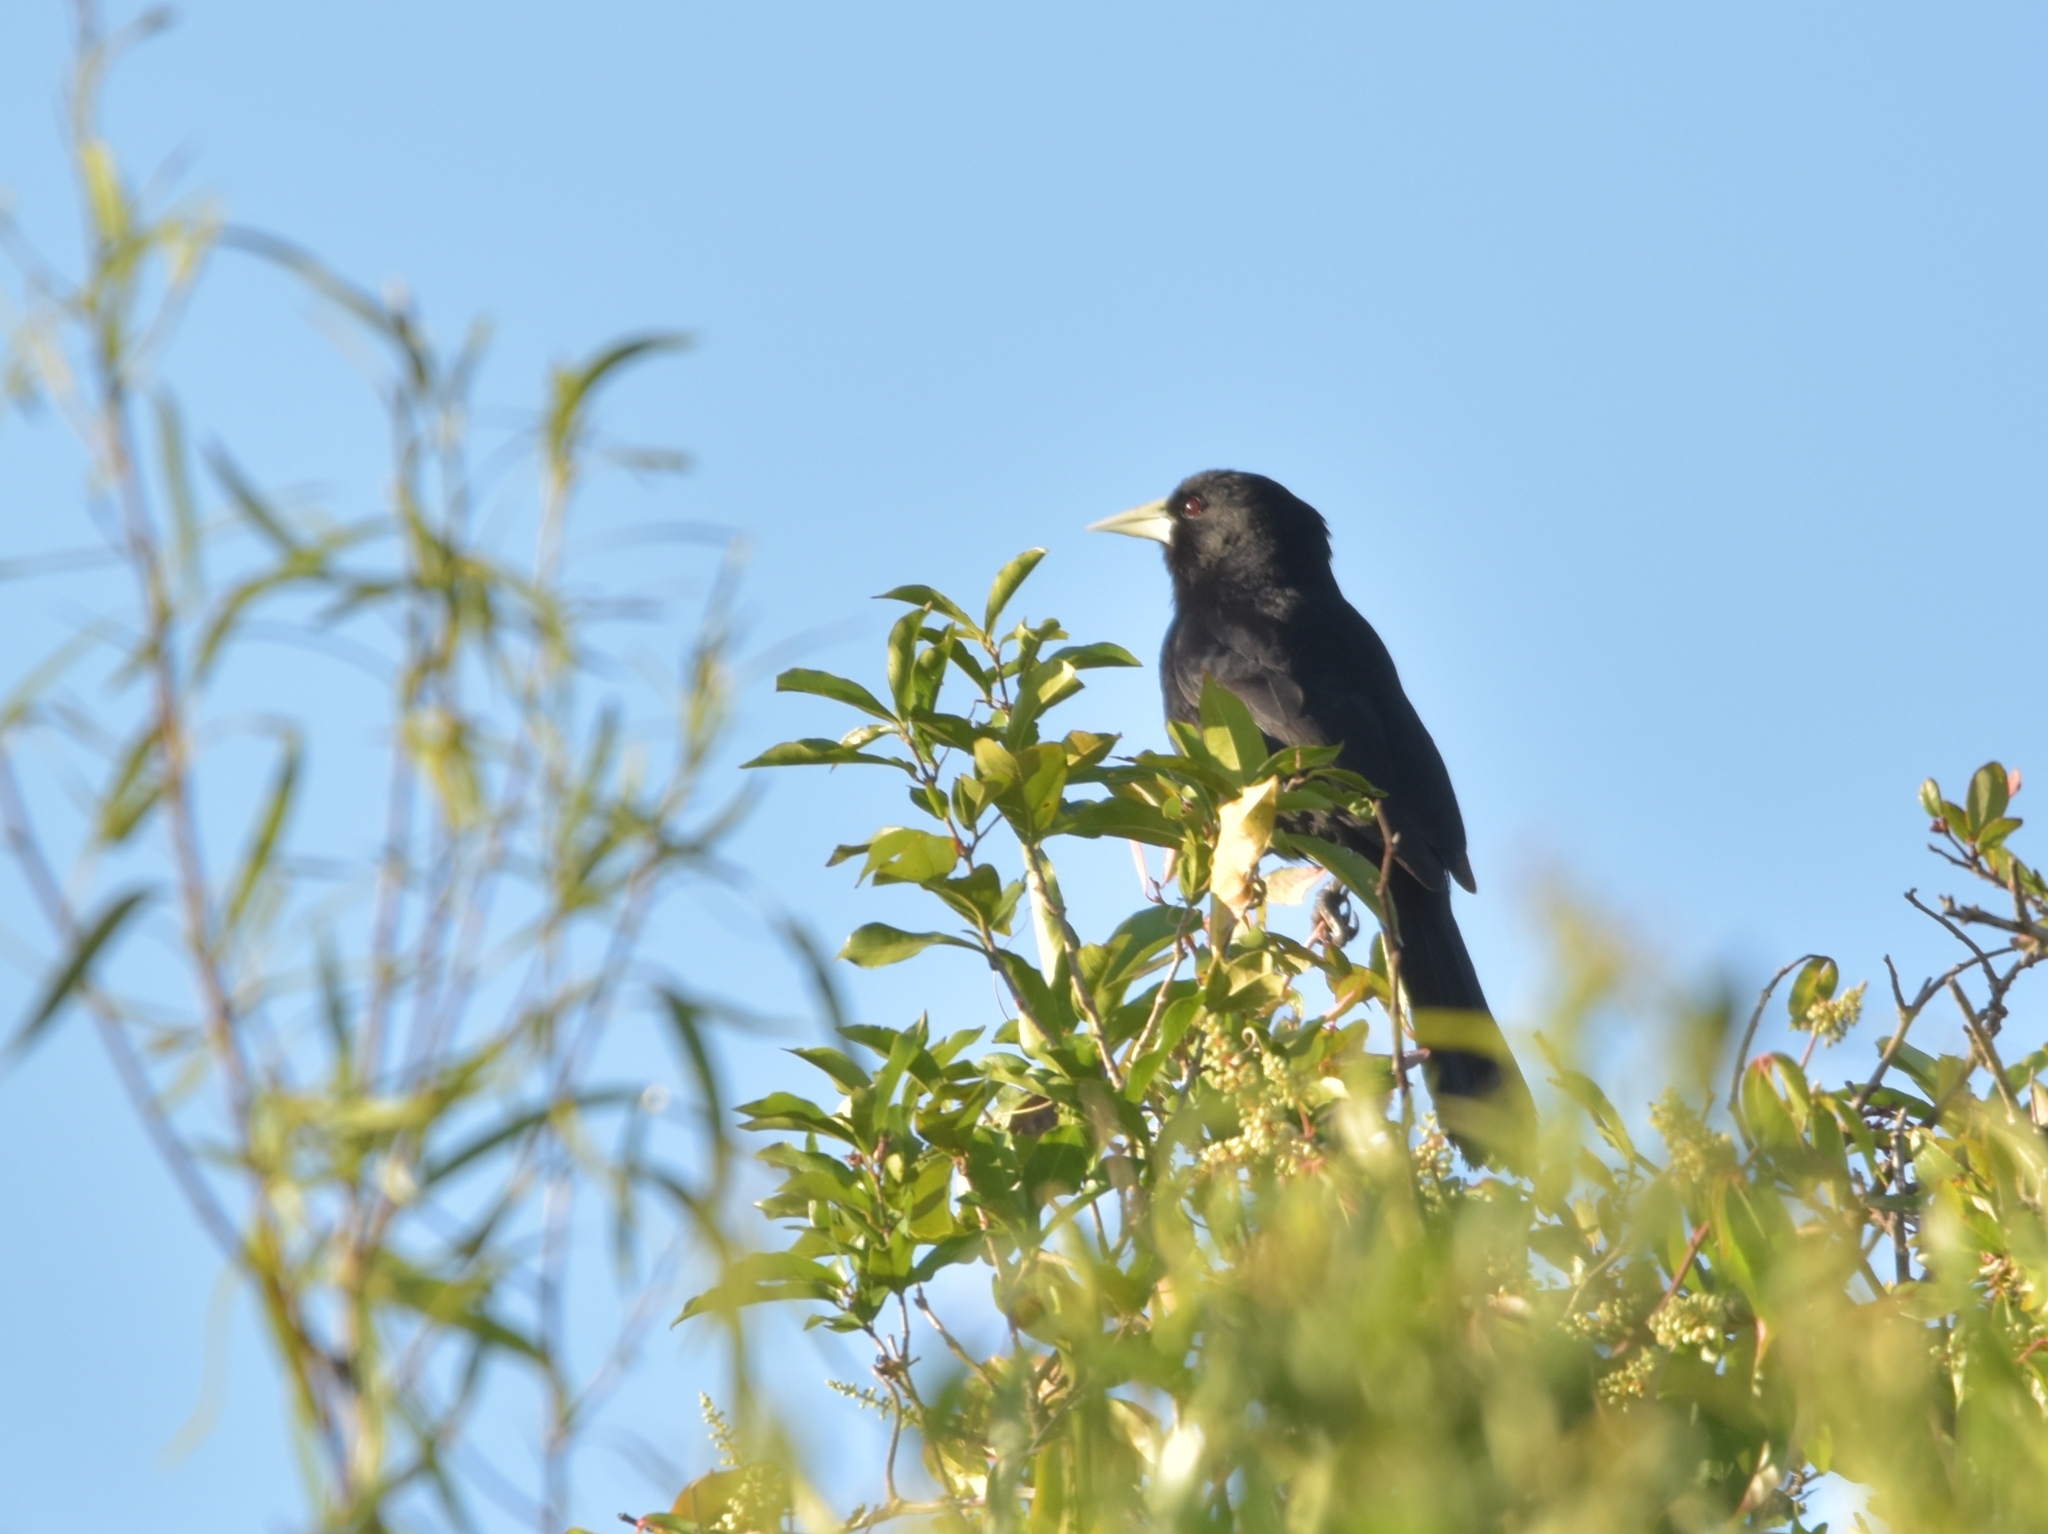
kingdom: Animalia
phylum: Chordata
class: Aves
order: Passeriformes
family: Icteridae
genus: Cacicus
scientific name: Cacicus solitarius
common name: Solitary cacique
